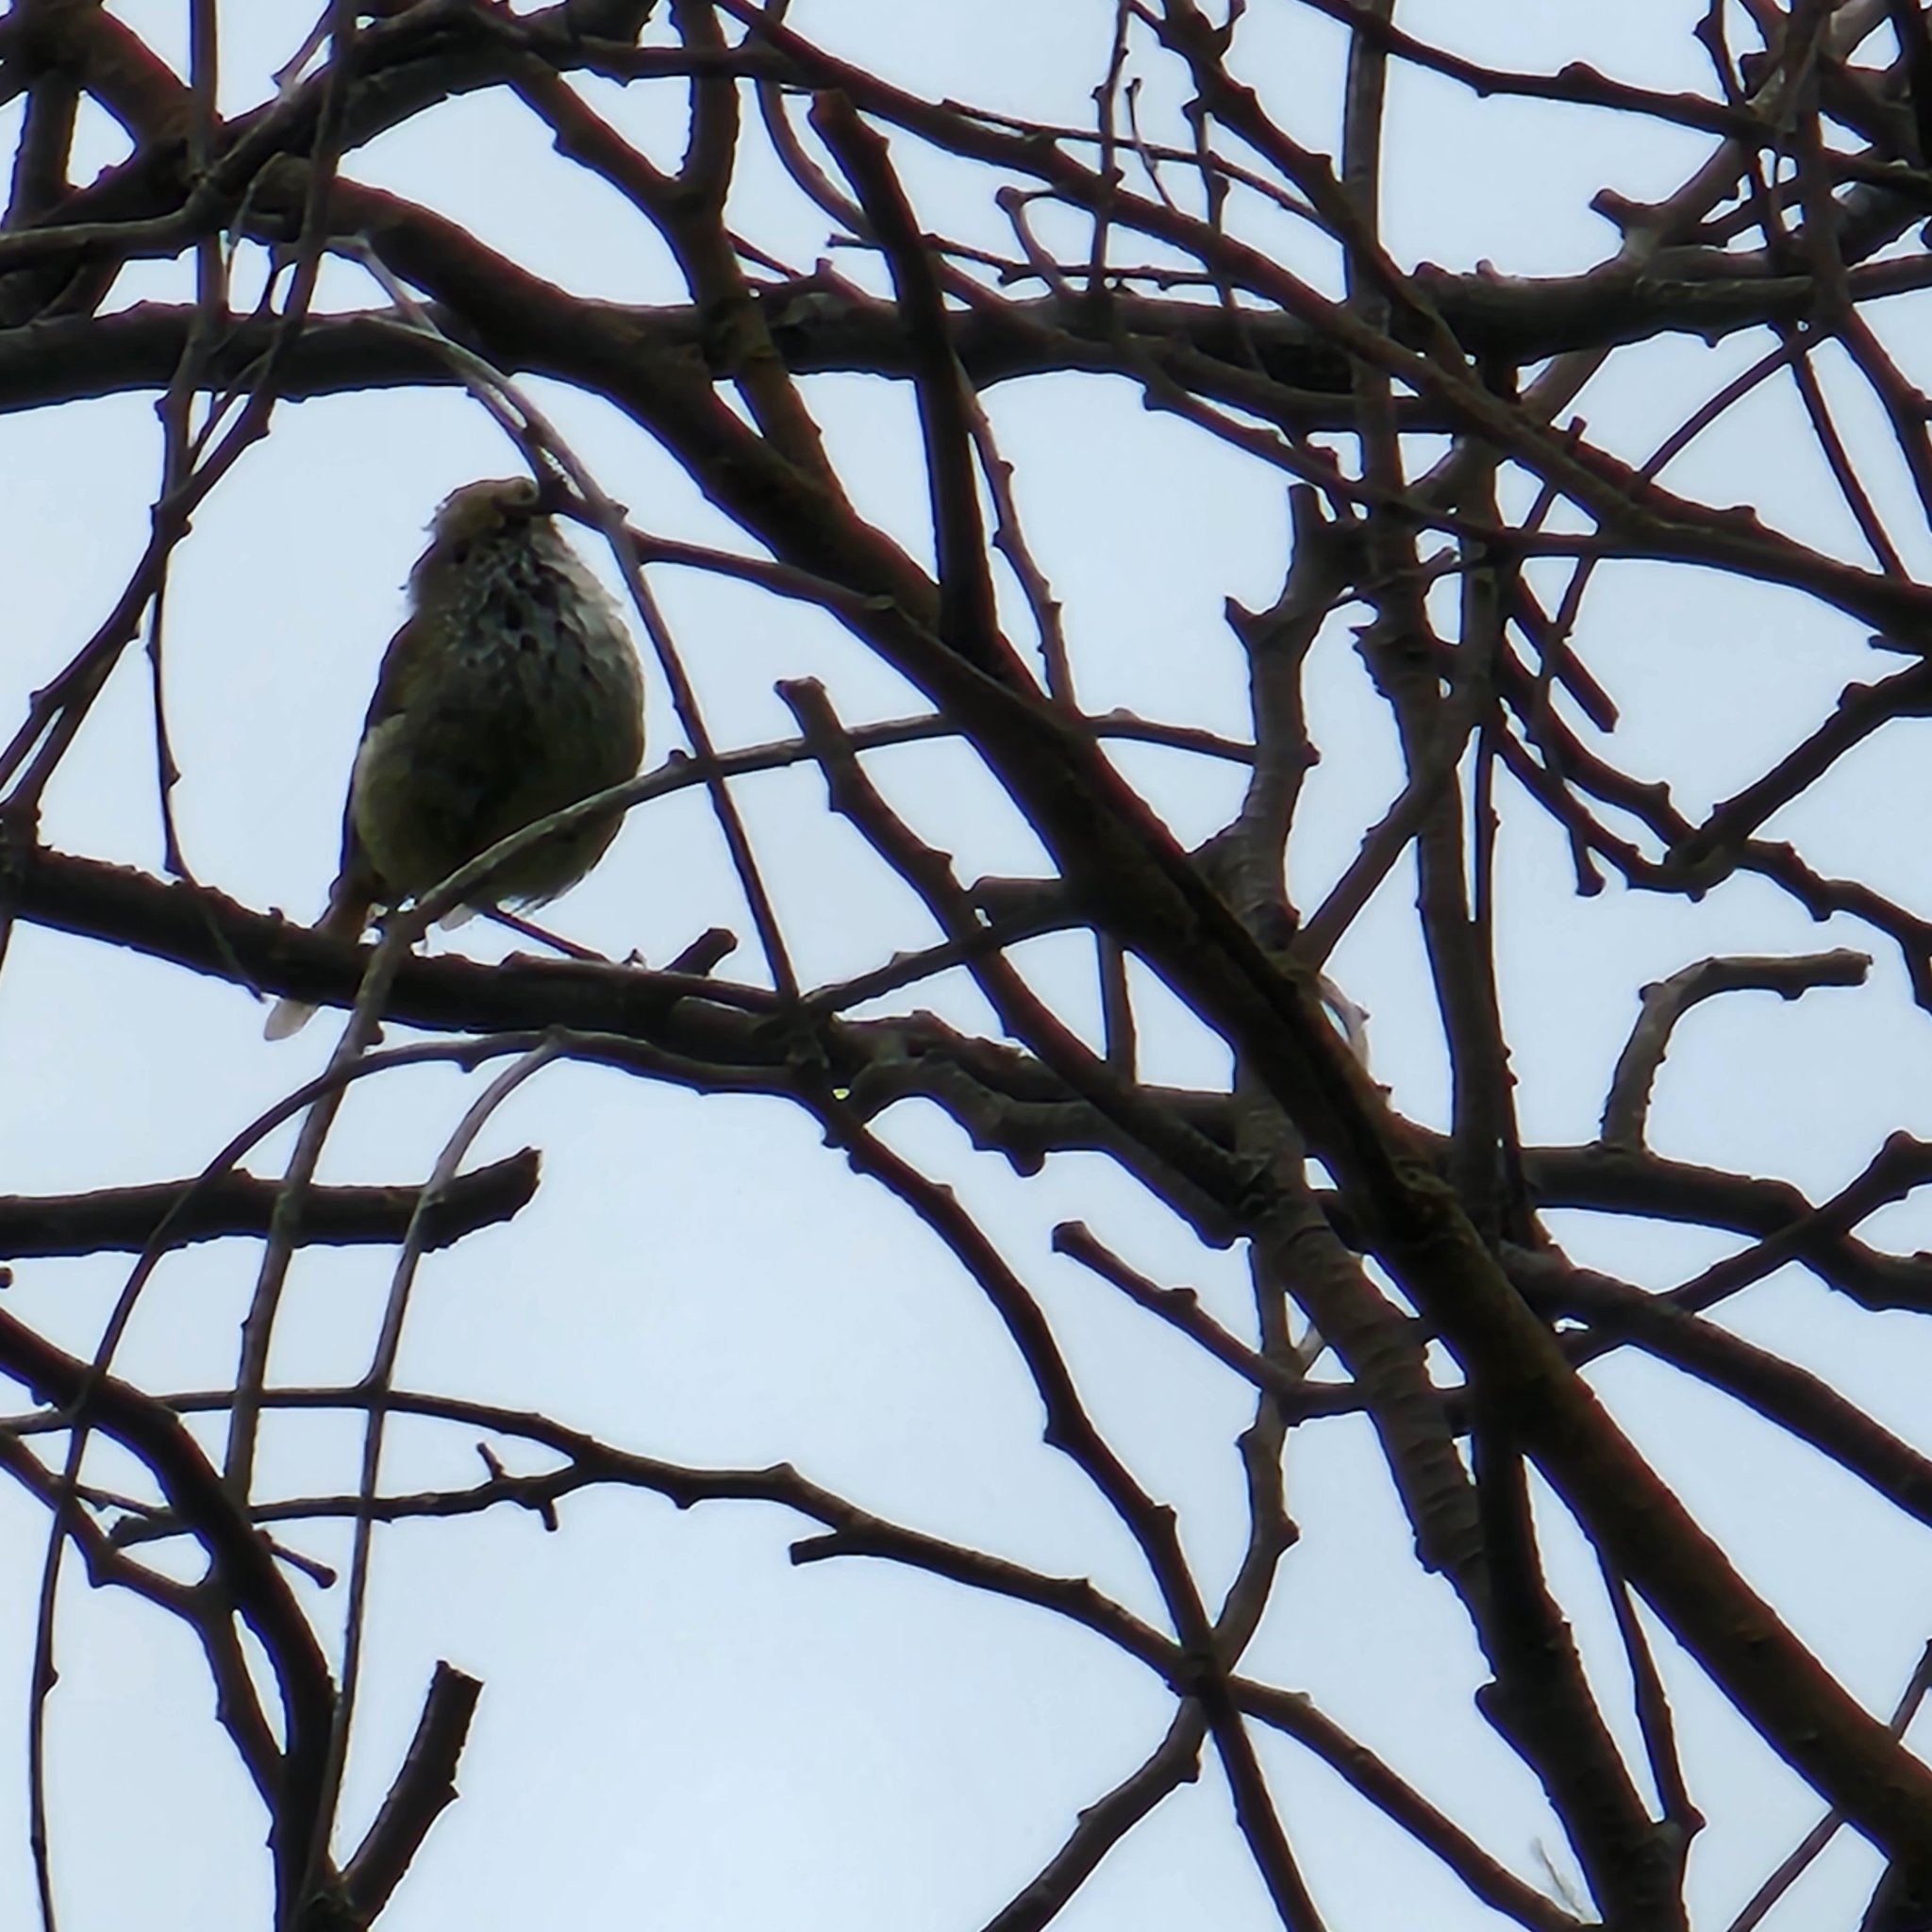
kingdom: Animalia
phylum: Chordata
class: Aves
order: Passeriformes
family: Acanthizidae
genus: Acanthiza
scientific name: Acanthiza pusilla
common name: Brown thornbill
